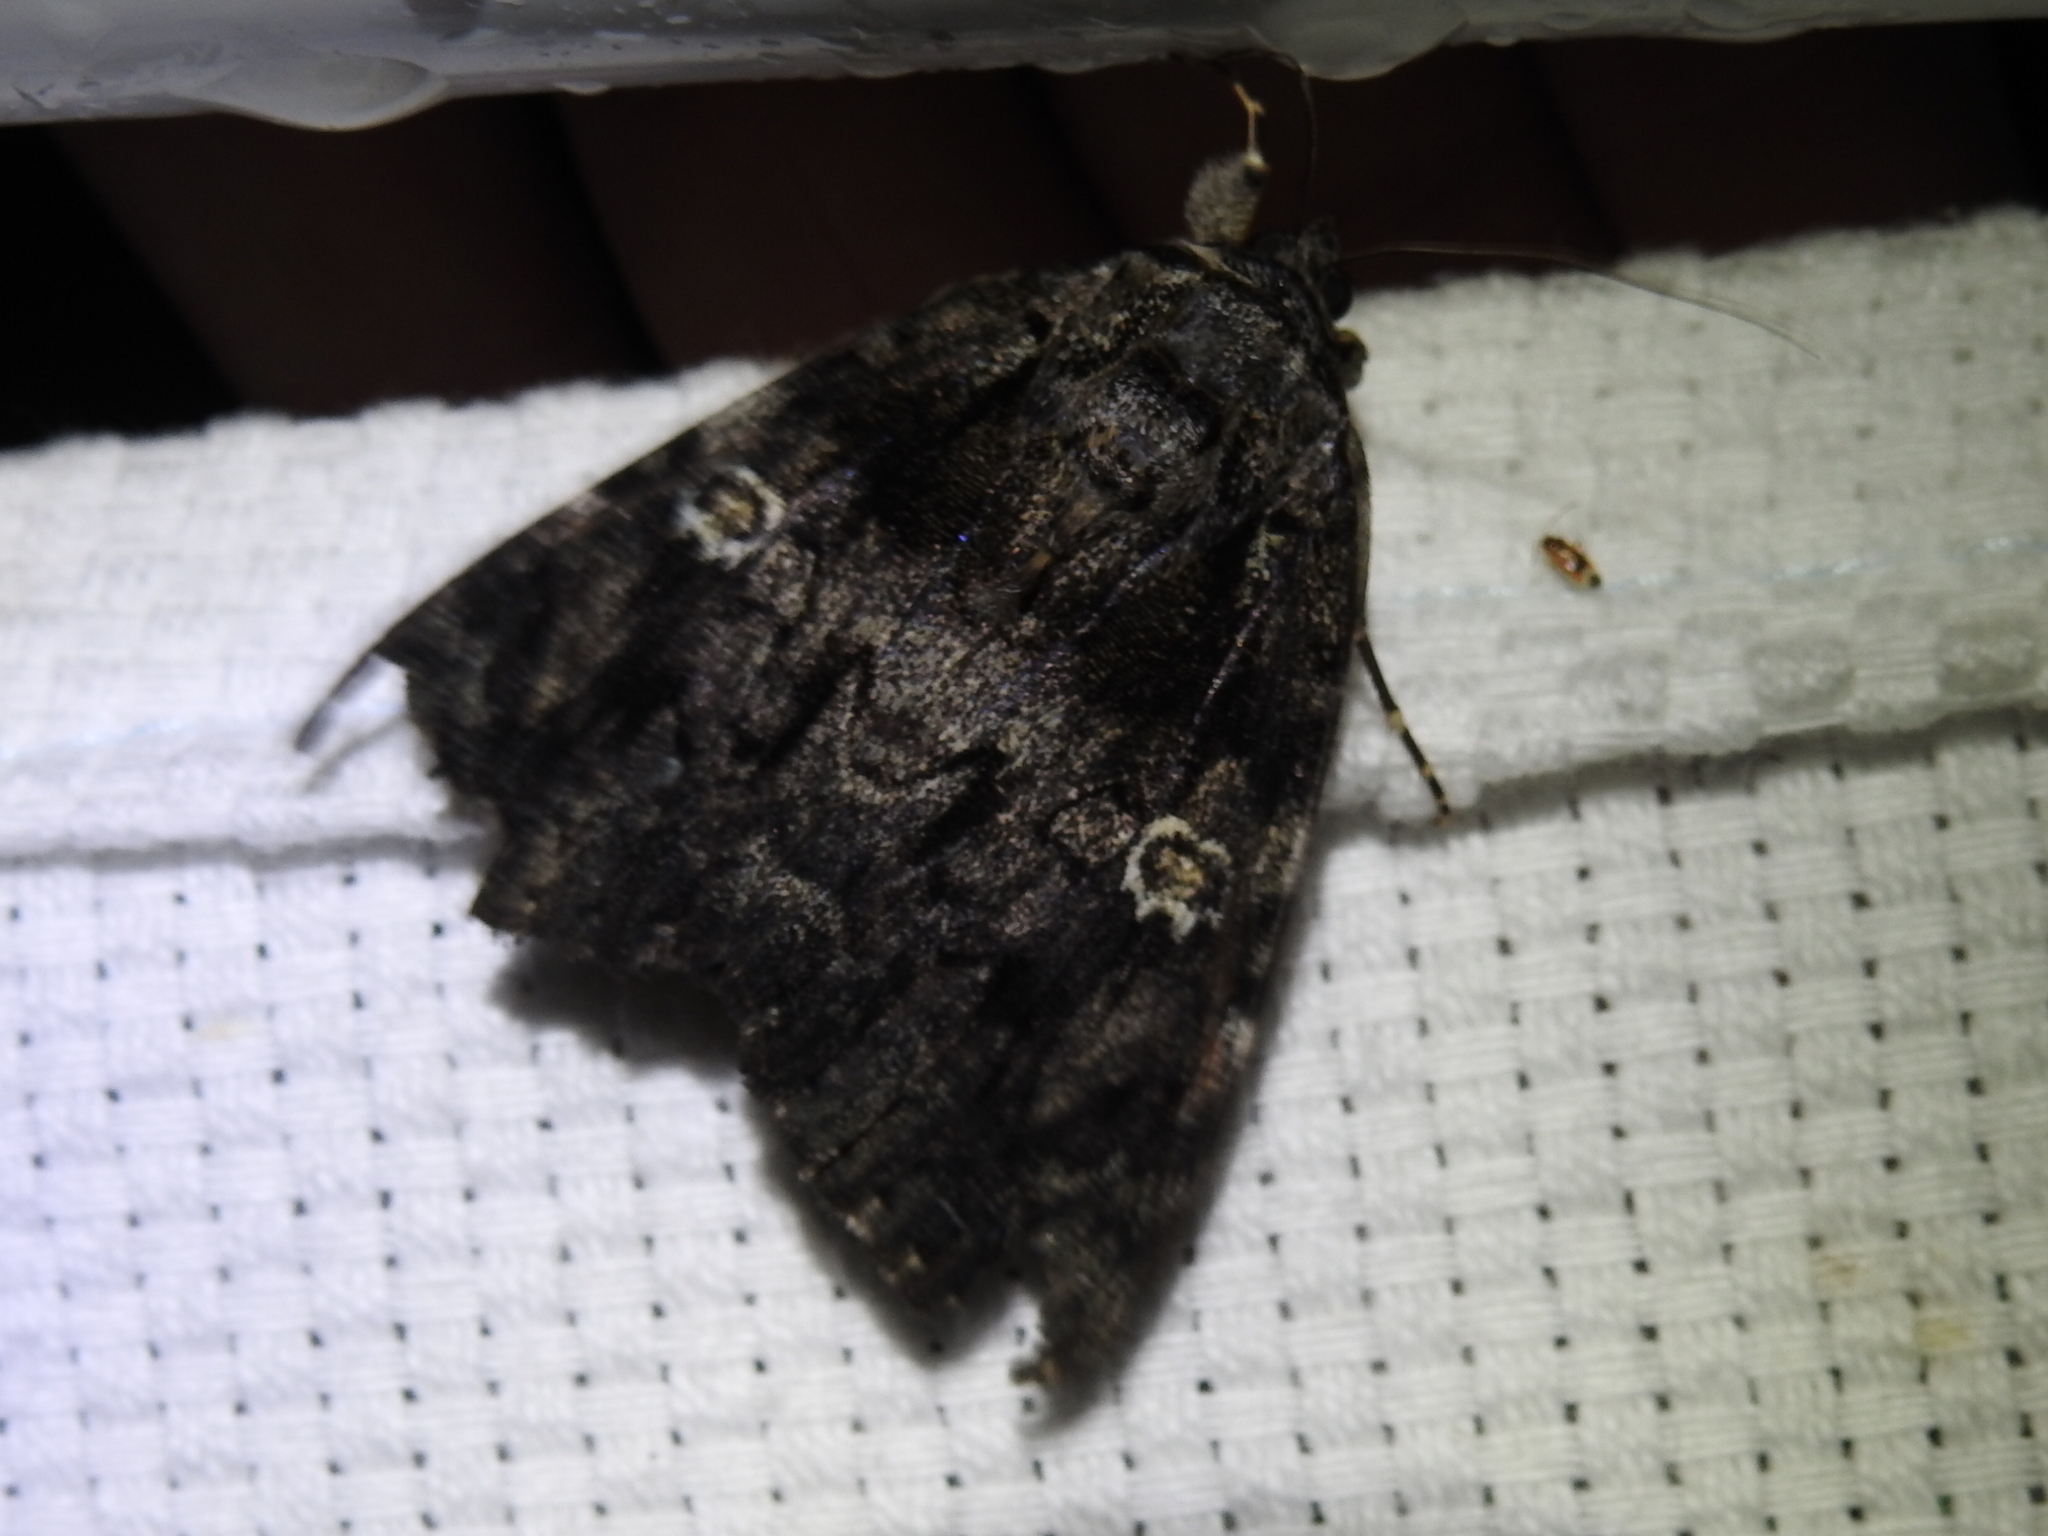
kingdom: Animalia
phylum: Arthropoda
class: Insecta
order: Lepidoptera
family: Erebidae
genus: Catocala
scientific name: Catocala ilia
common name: Ilia underwing
